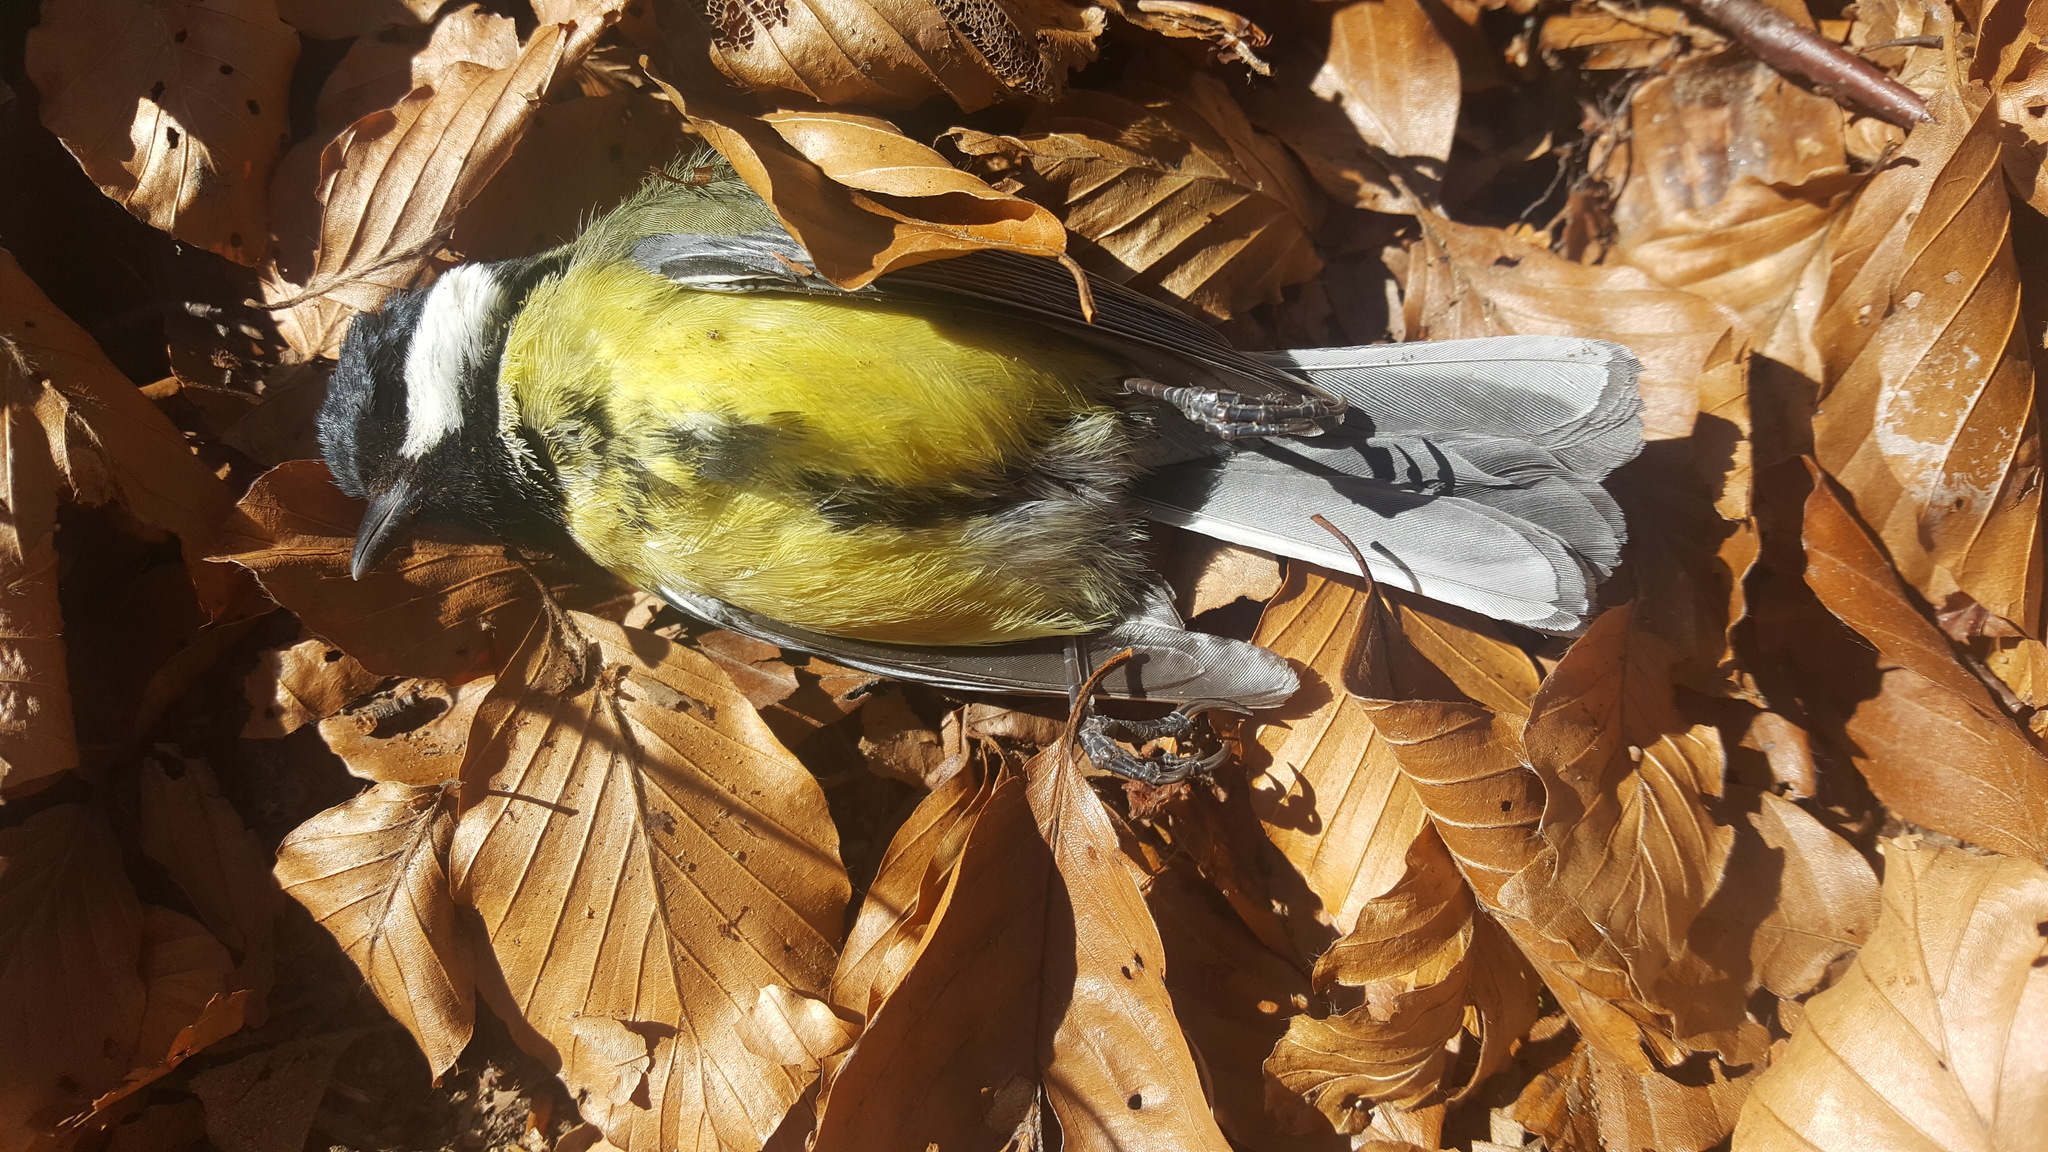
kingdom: Animalia
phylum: Chordata
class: Aves
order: Passeriformes
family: Paridae
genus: Parus
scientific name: Parus major
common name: Great tit
